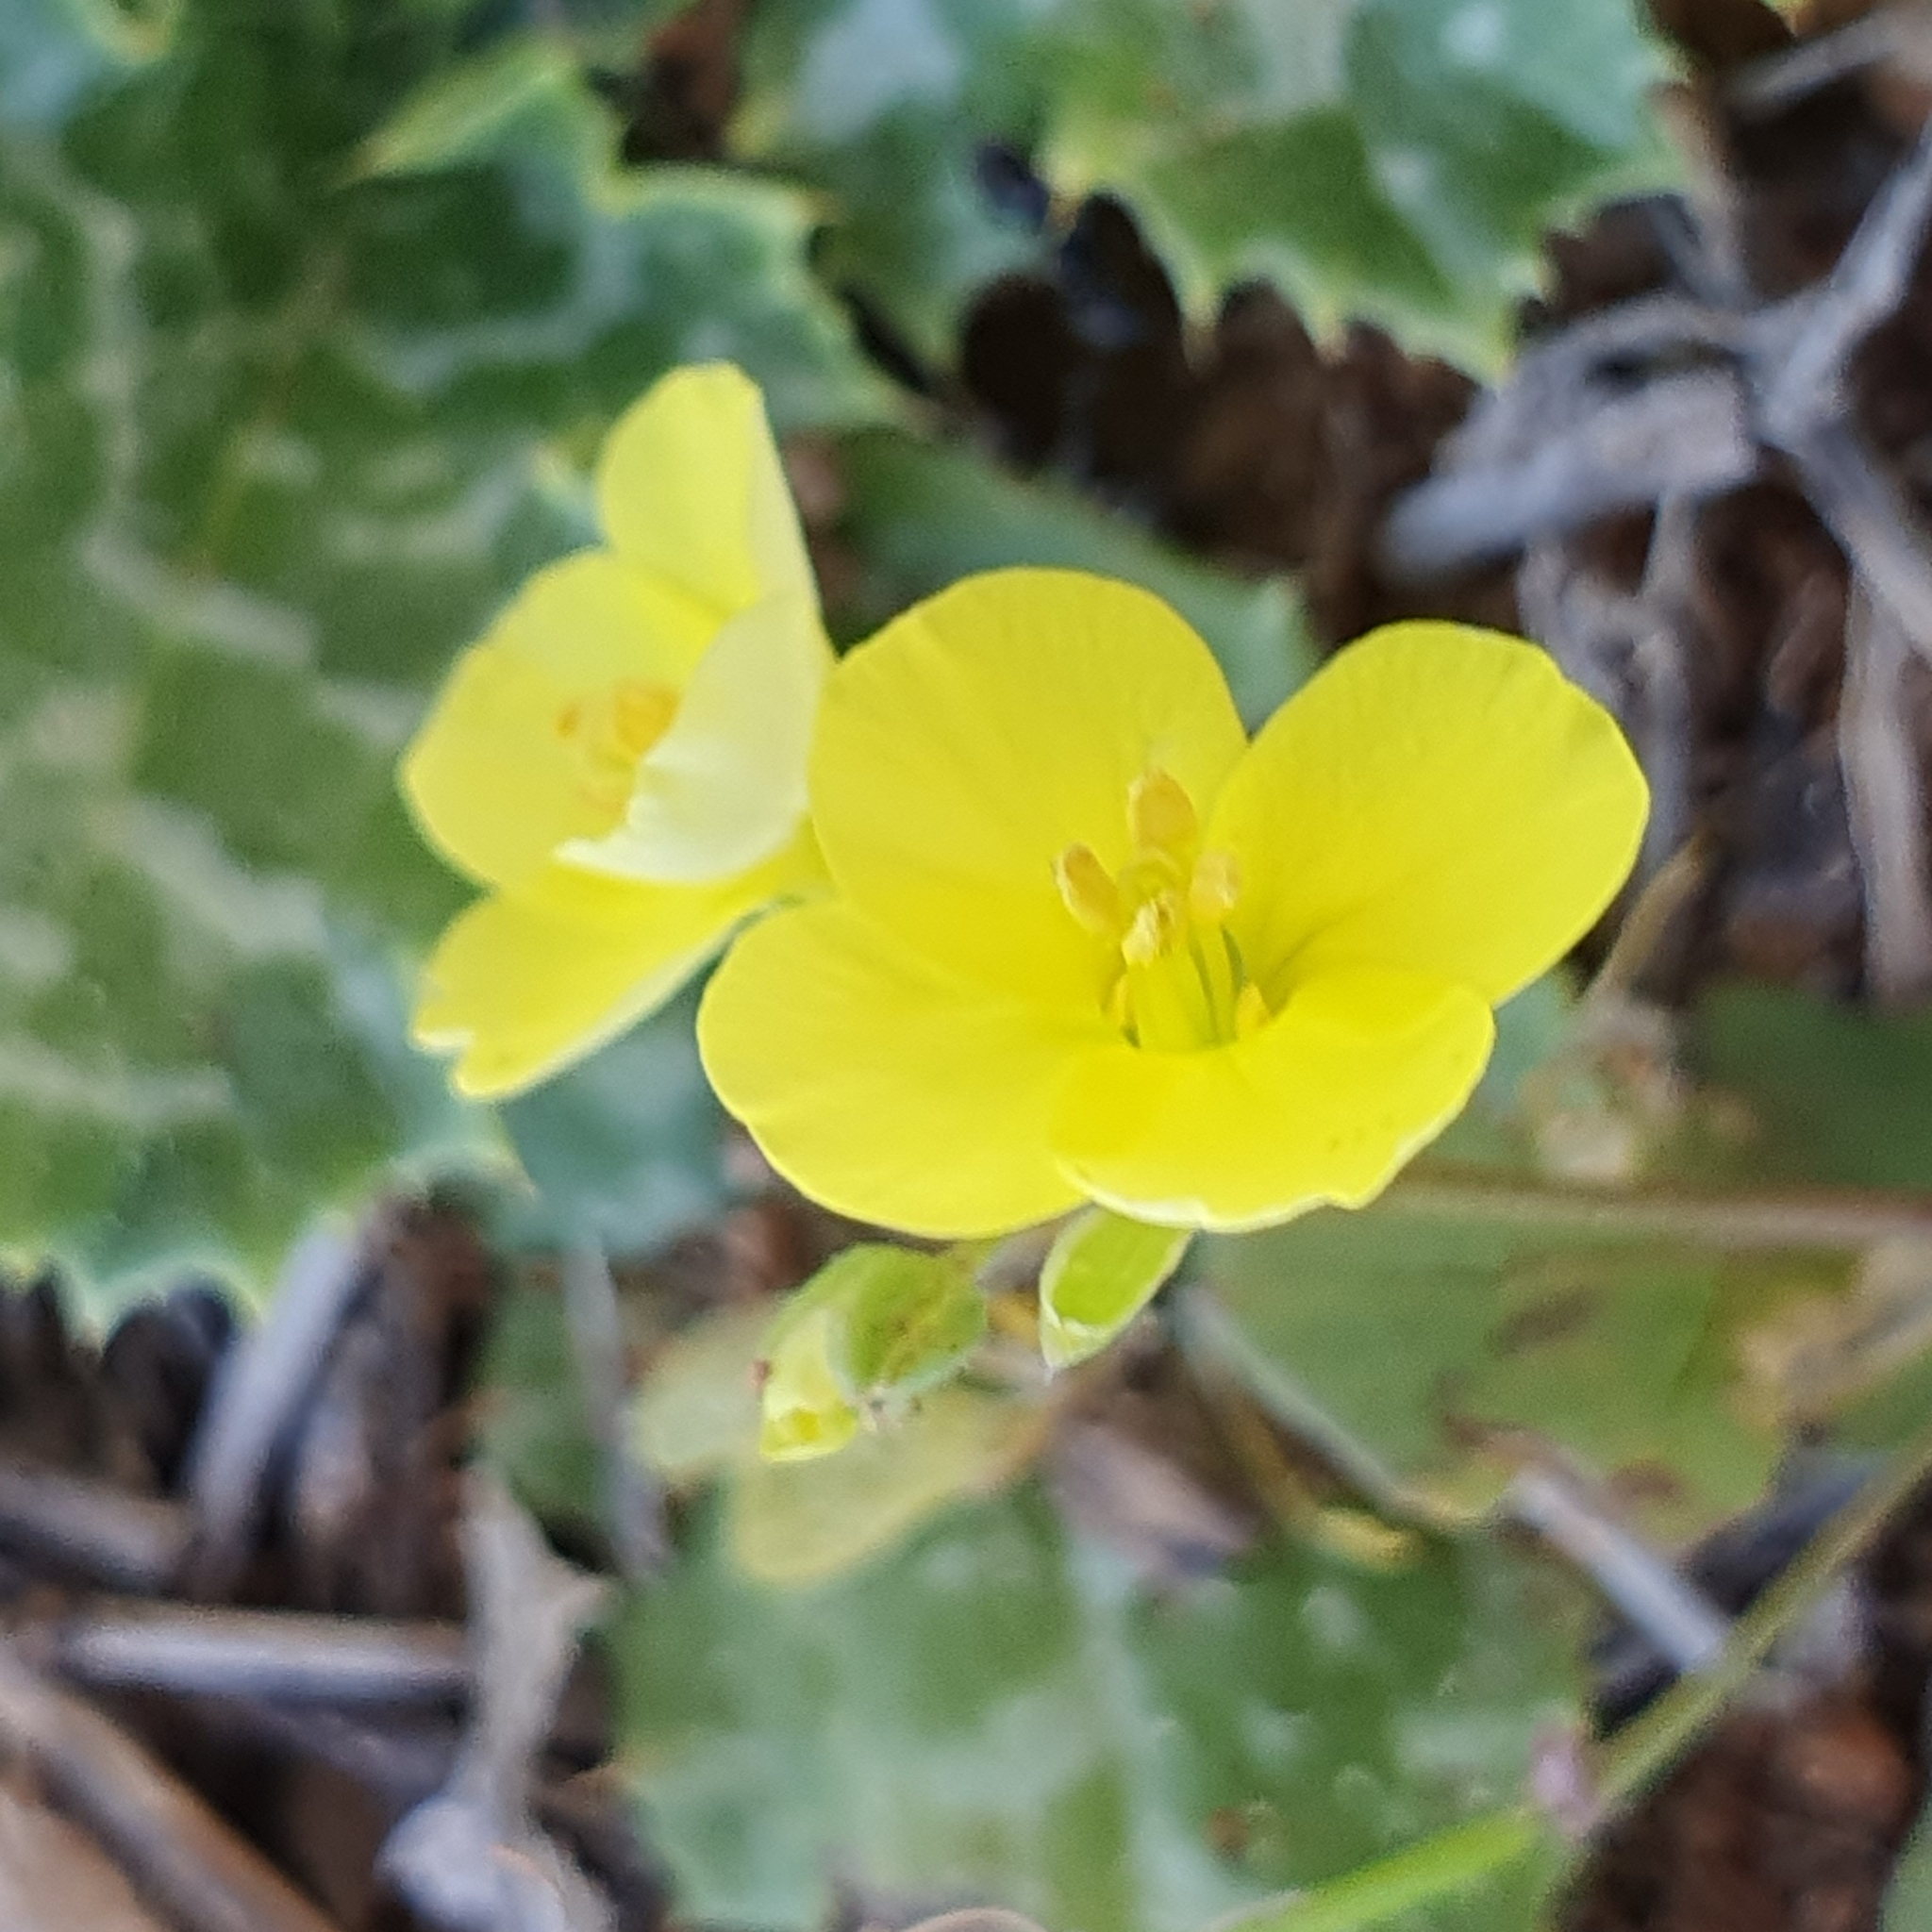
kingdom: Plantae
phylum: Tracheophyta
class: Magnoliopsida
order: Brassicales
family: Brassicaceae
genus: Diplotaxis
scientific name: Diplotaxis muralis
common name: Annual wall-rocket
